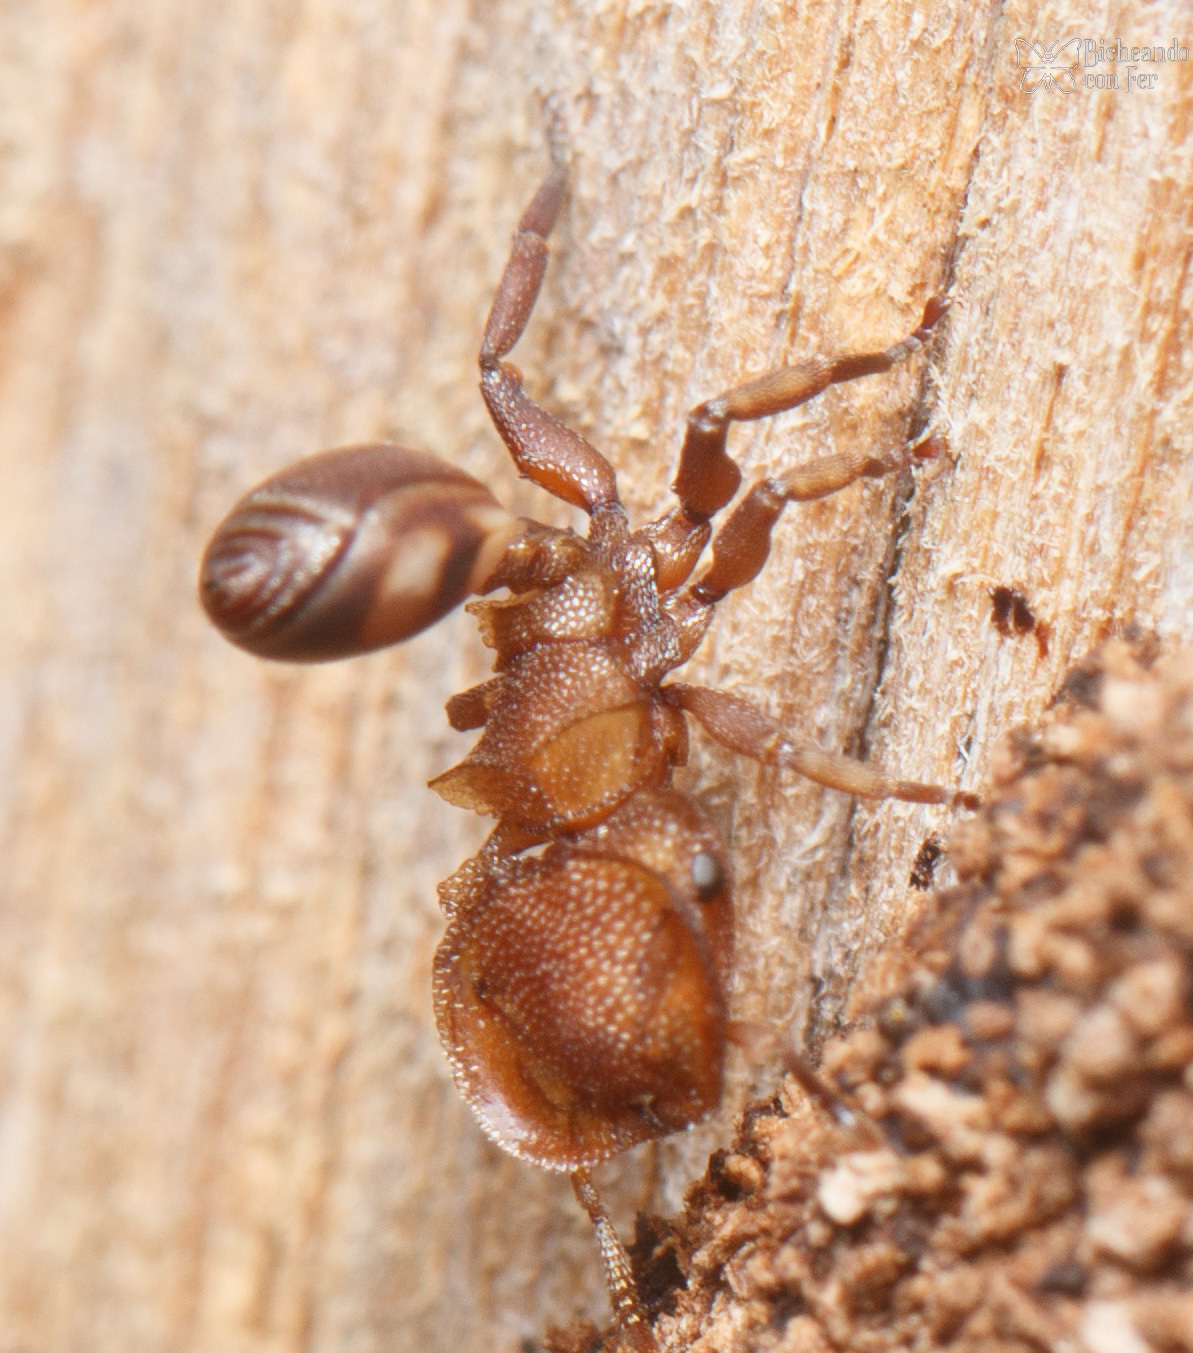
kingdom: Animalia
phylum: Arthropoda
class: Insecta
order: Hymenoptera
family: Formicidae
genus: Cephalotes
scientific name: Cephalotes umbraculatus
